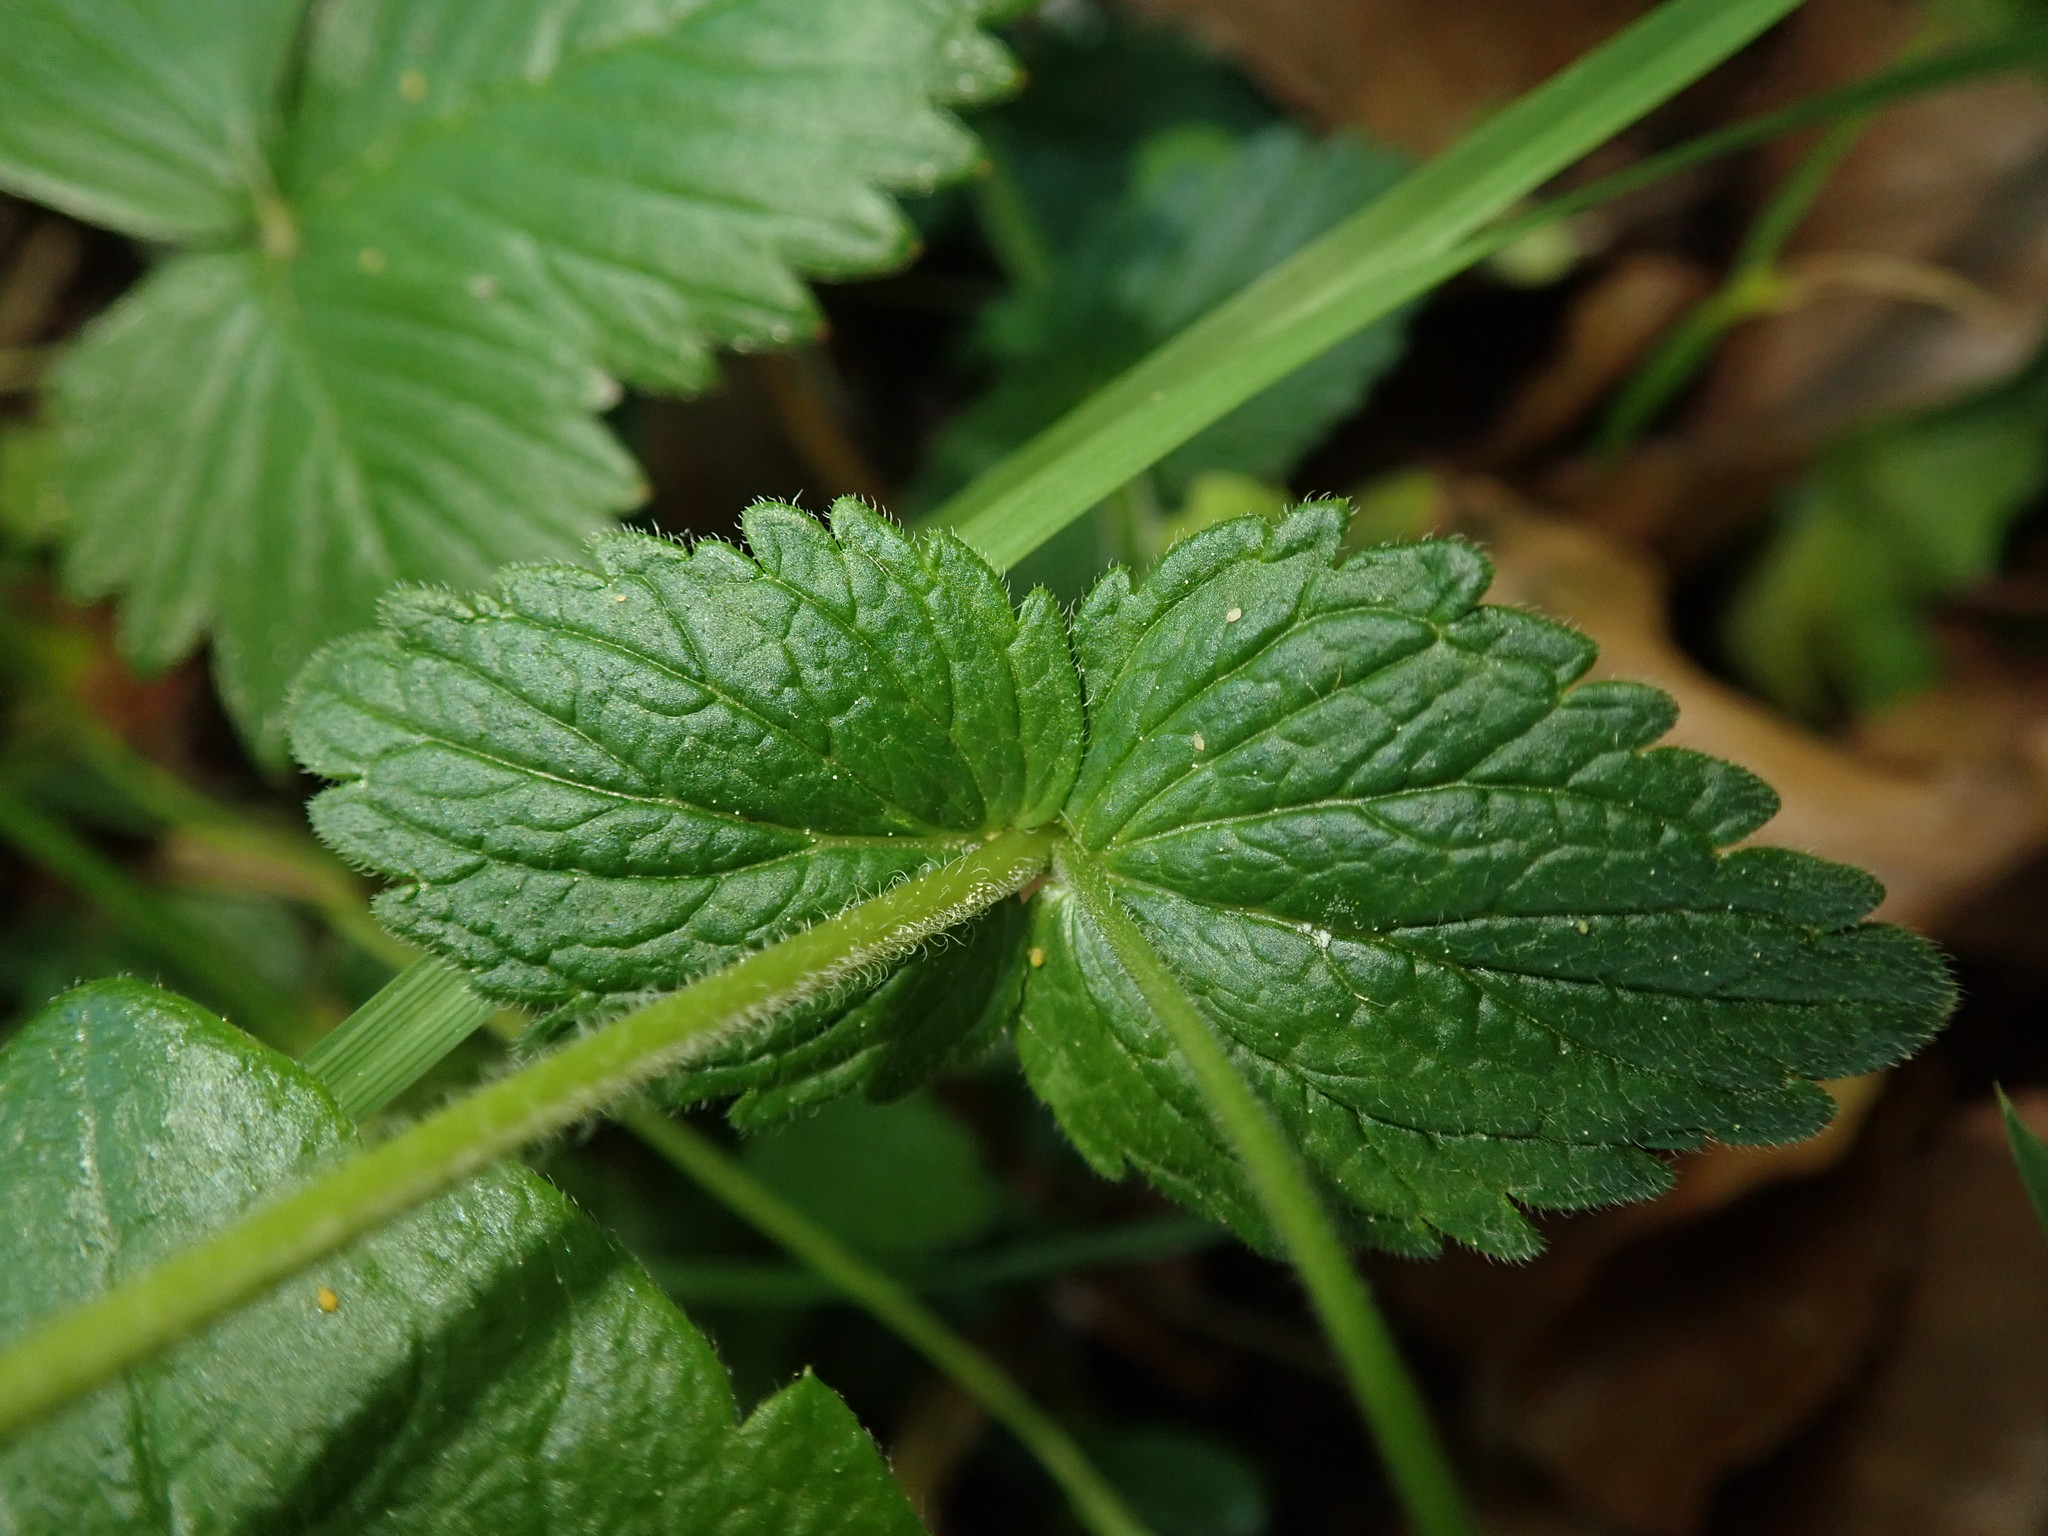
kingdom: Plantae
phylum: Tracheophyta
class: Magnoliopsida
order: Lamiales
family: Plantaginaceae
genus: Veronica
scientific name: Veronica chamaedrys
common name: Germander speedwell
